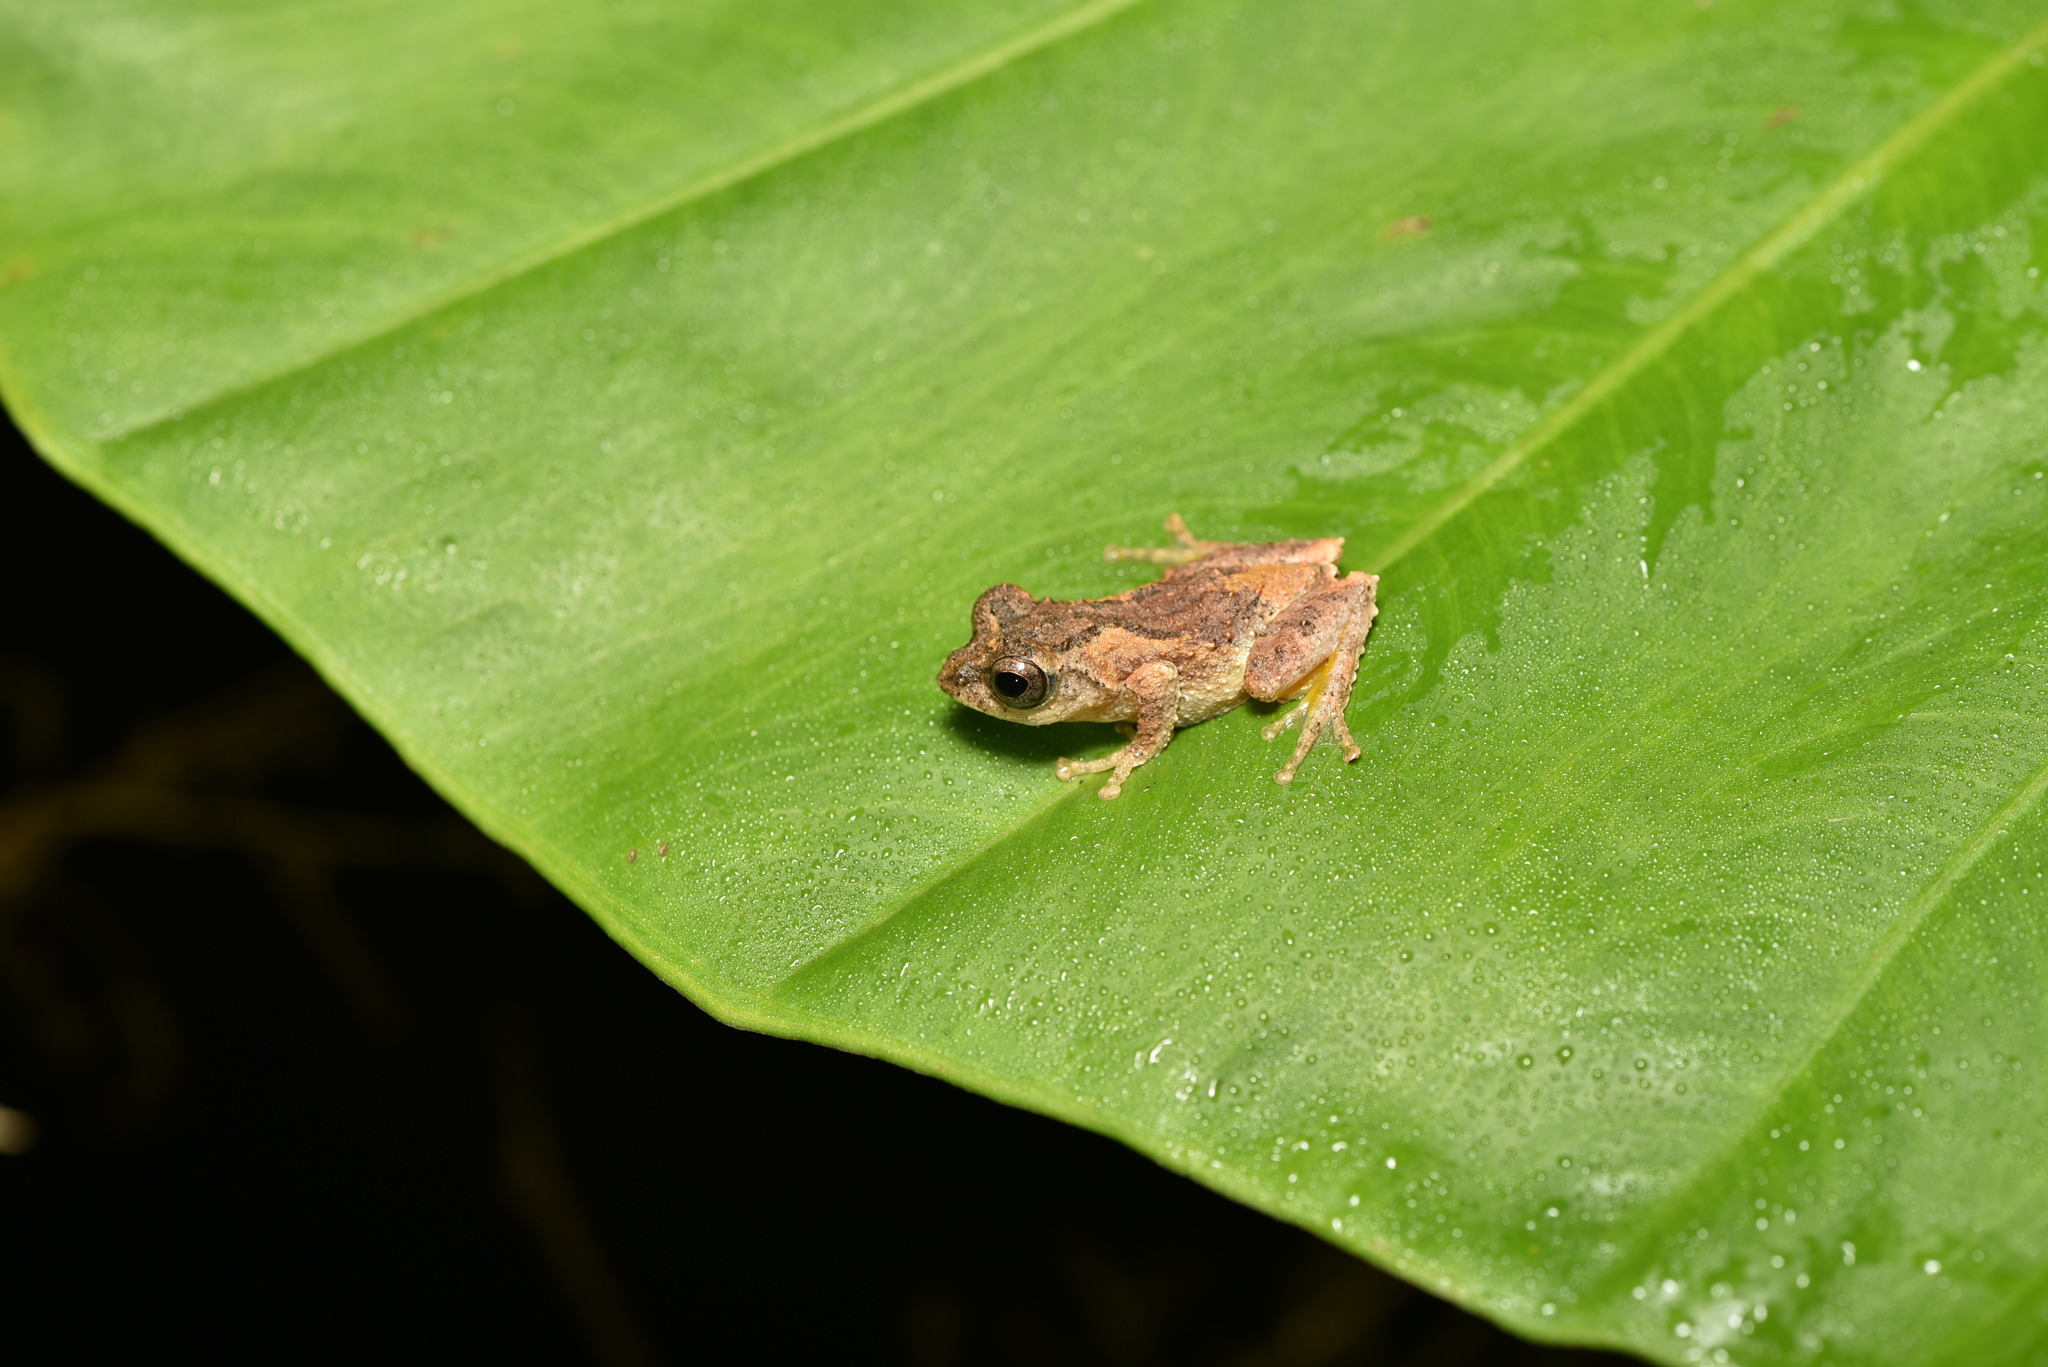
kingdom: Animalia
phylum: Chordata
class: Amphibia
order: Anura
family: Rhacophoridae
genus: Kurixalus
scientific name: Kurixalus idiootocus
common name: Temple treefrog
